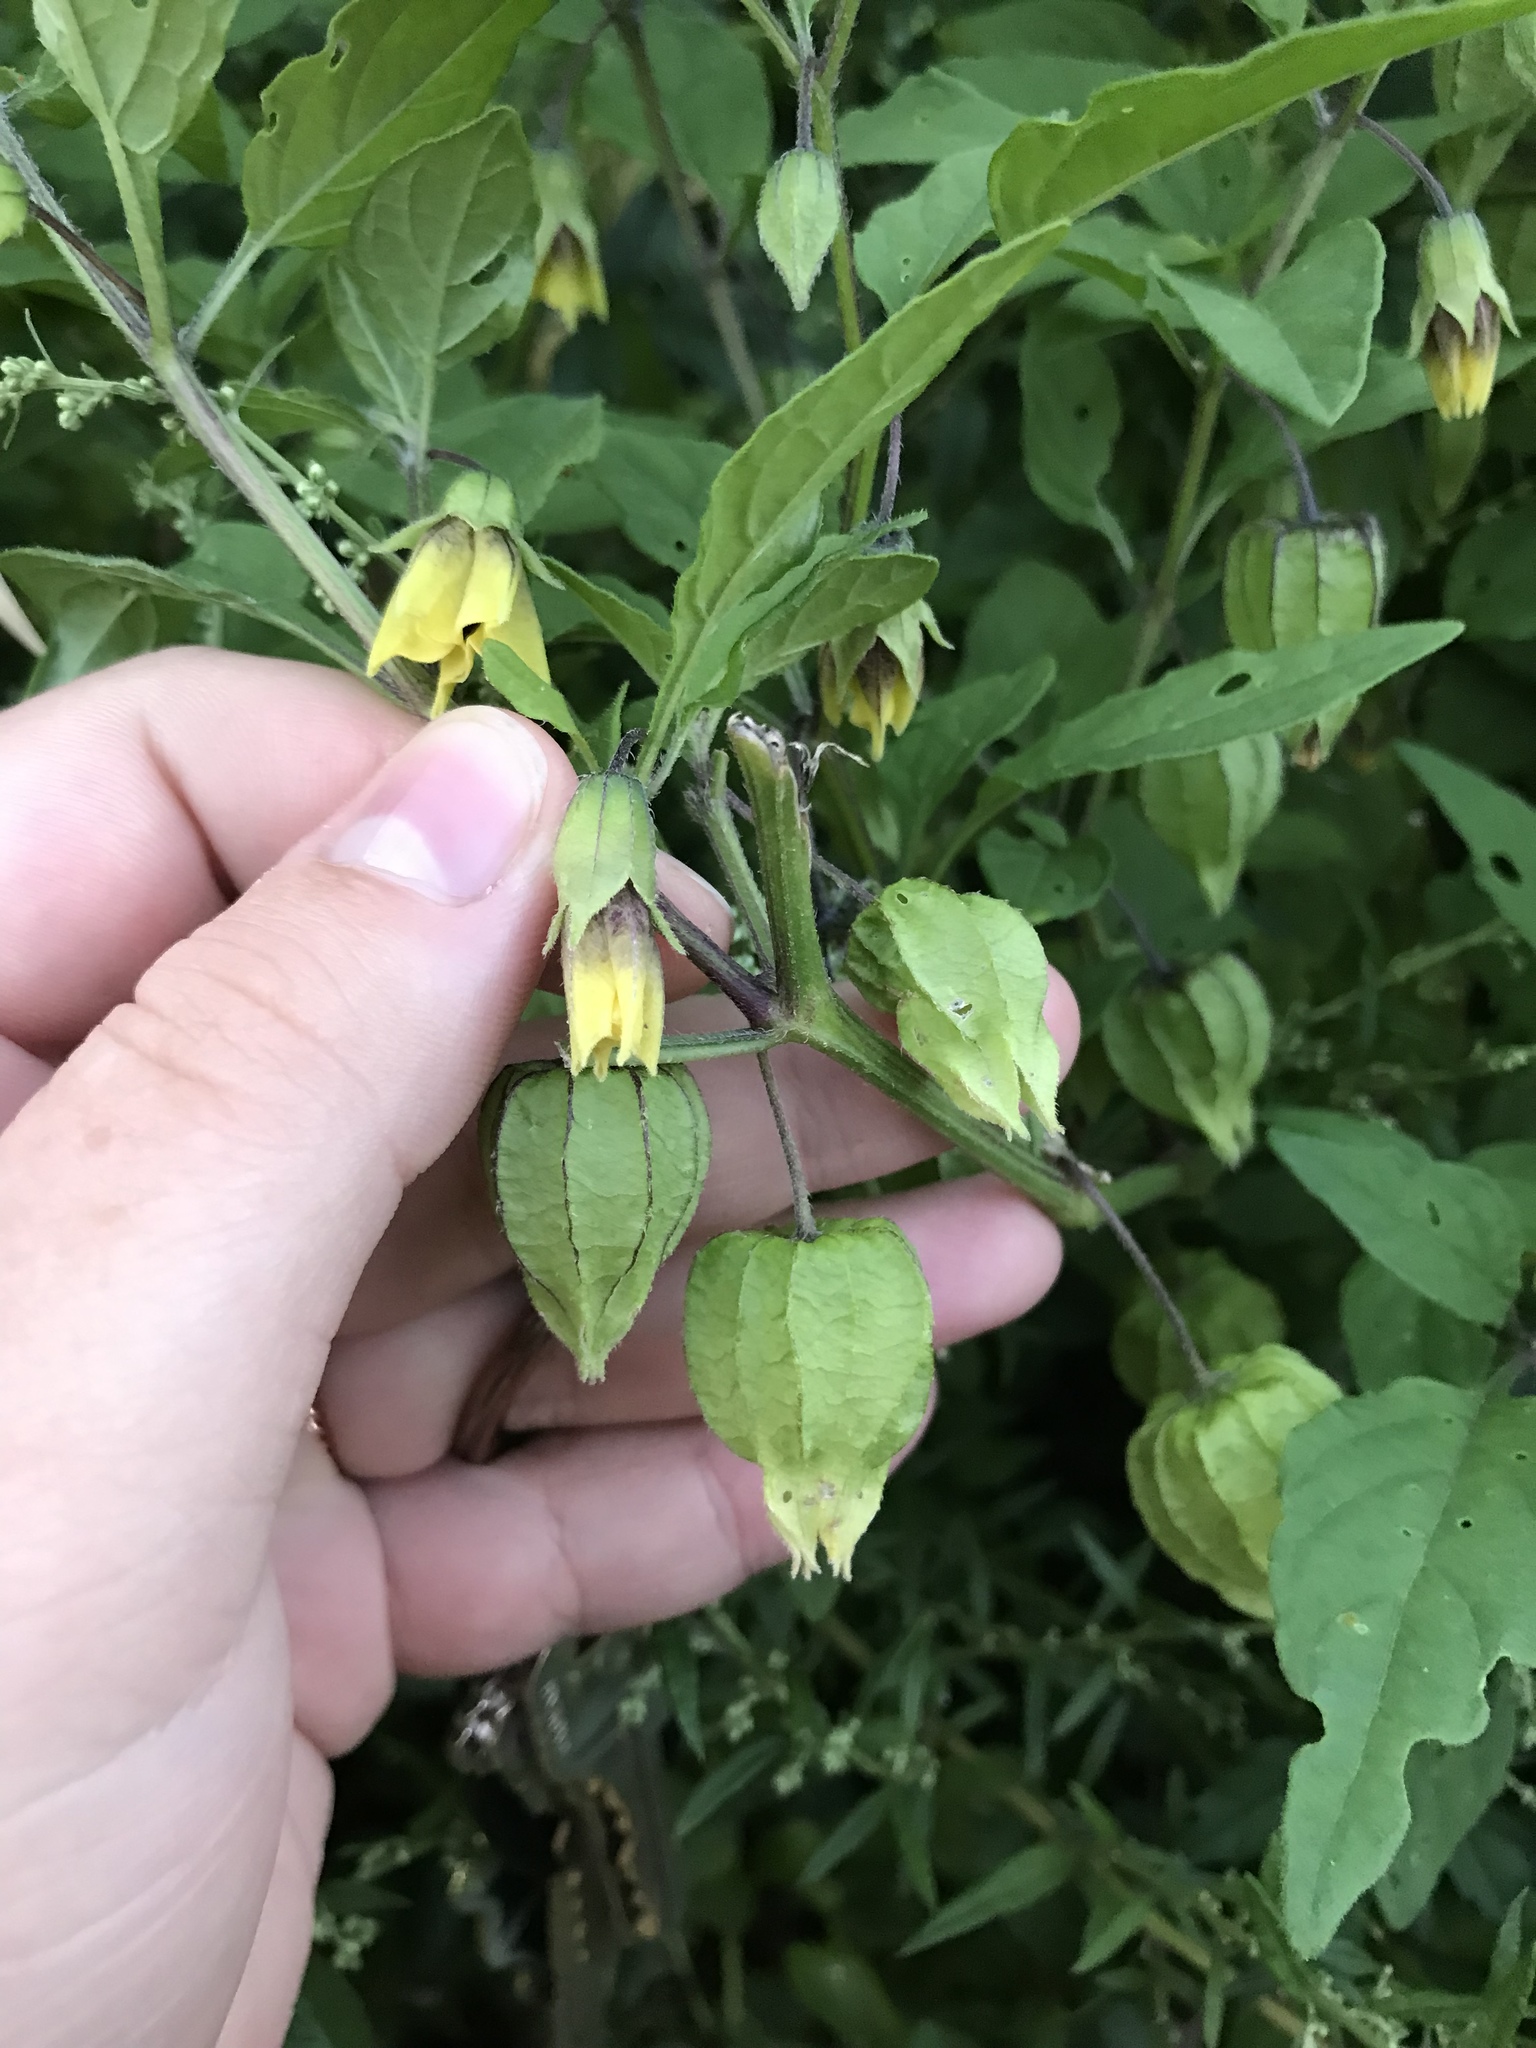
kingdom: Plantae
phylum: Tracheophyta
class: Magnoliopsida
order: Solanales
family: Solanaceae
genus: Physalis
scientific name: Physalis longifolia
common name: Common ground-cherry
